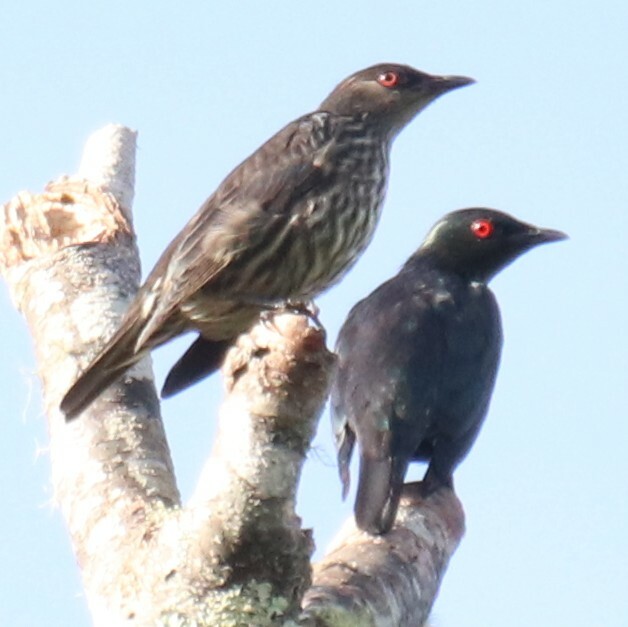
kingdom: Animalia
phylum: Chordata
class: Aves
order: Passeriformes
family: Sturnidae
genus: Aplonis
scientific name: Aplonis panayensis
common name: Asian glossy starling
